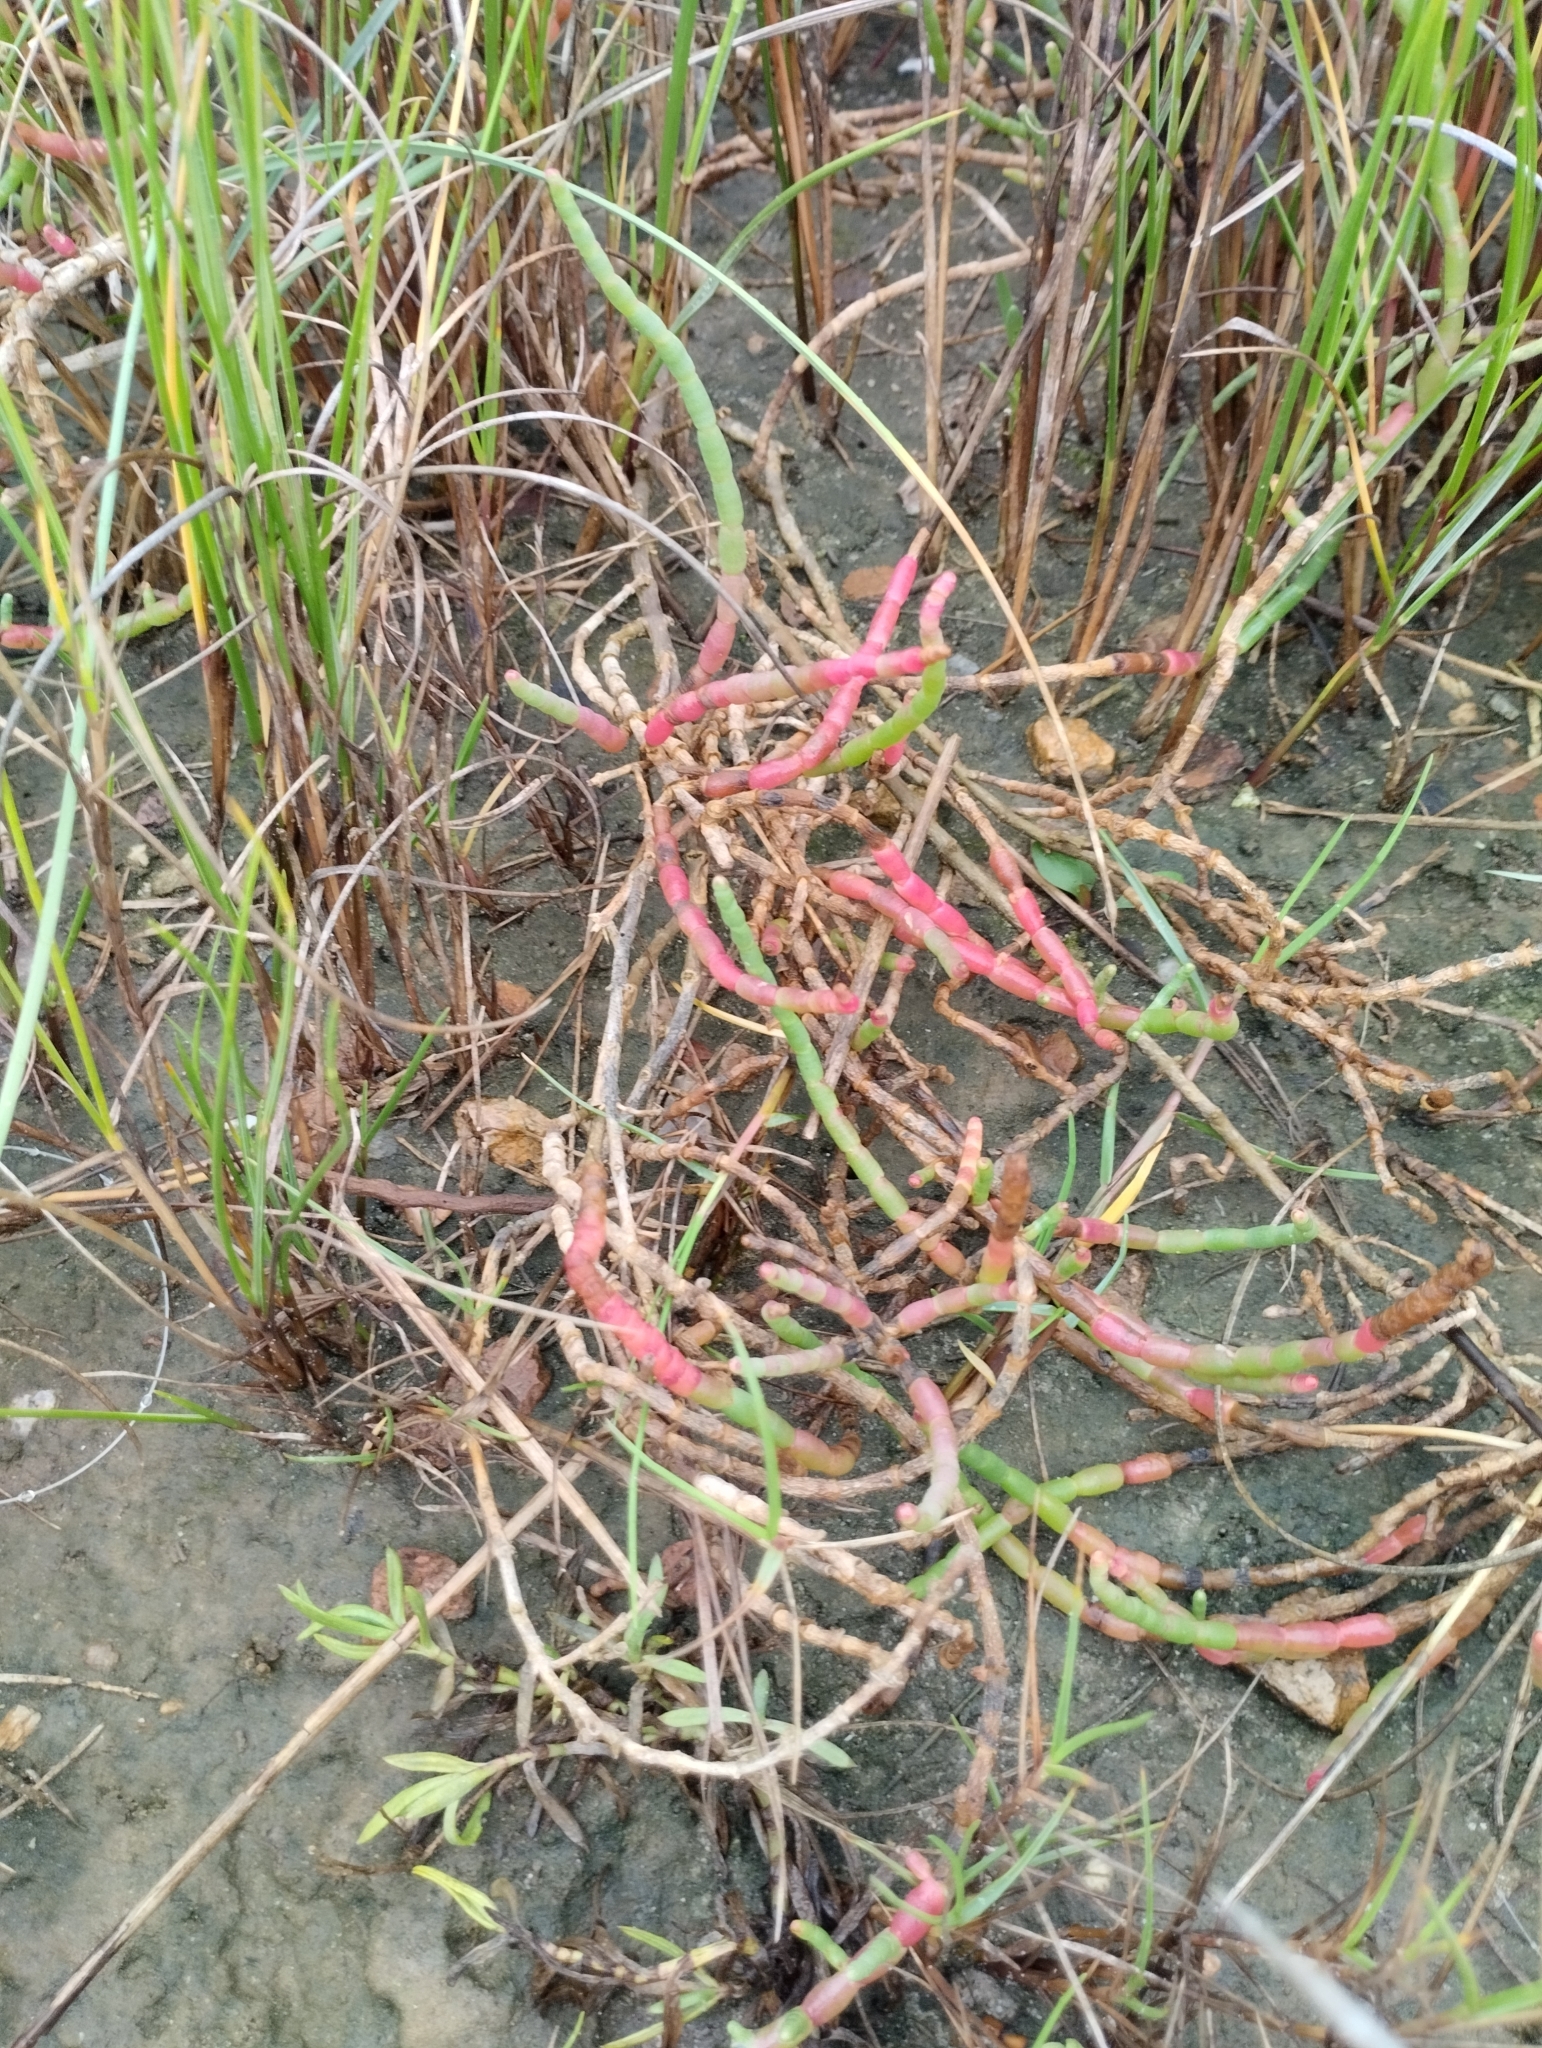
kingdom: Plantae
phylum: Tracheophyta
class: Magnoliopsida
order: Caryophyllales
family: Amaranthaceae
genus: Salicornia
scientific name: Salicornia ambigua
